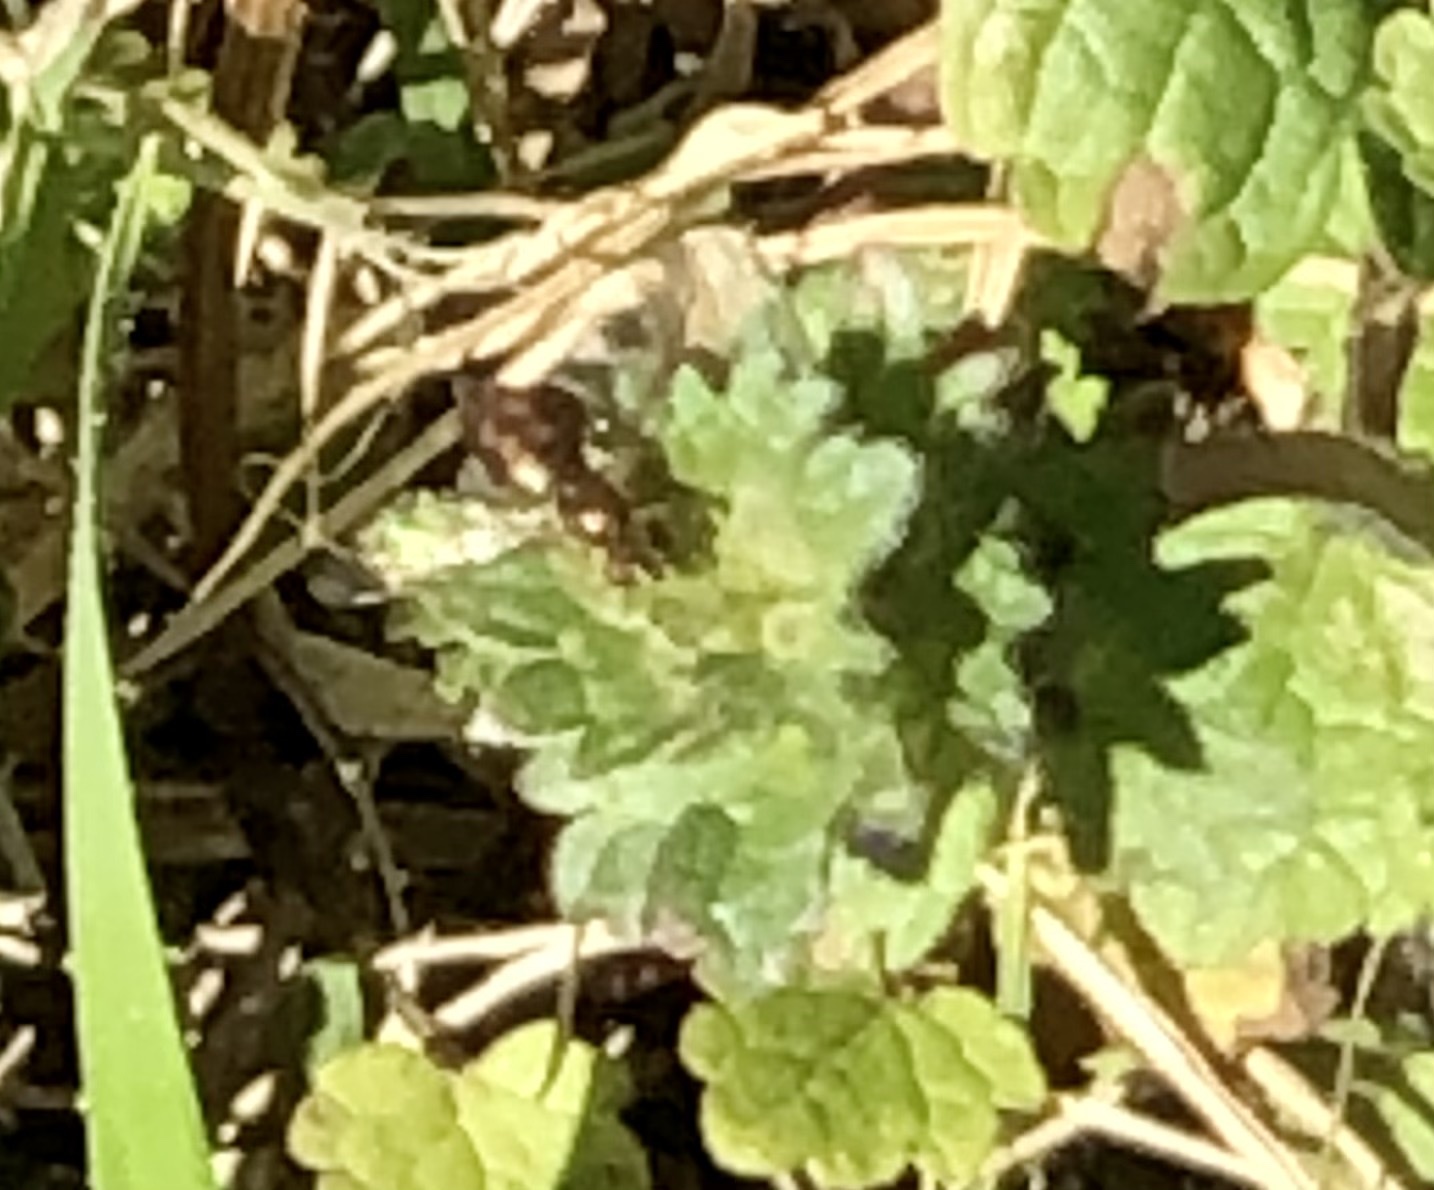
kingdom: Animalia
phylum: Arthropoda
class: Insecta
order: Diptera
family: Syrphidae
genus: Toxomerus
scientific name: Toxomerus marginatus
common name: Syrphid fly
